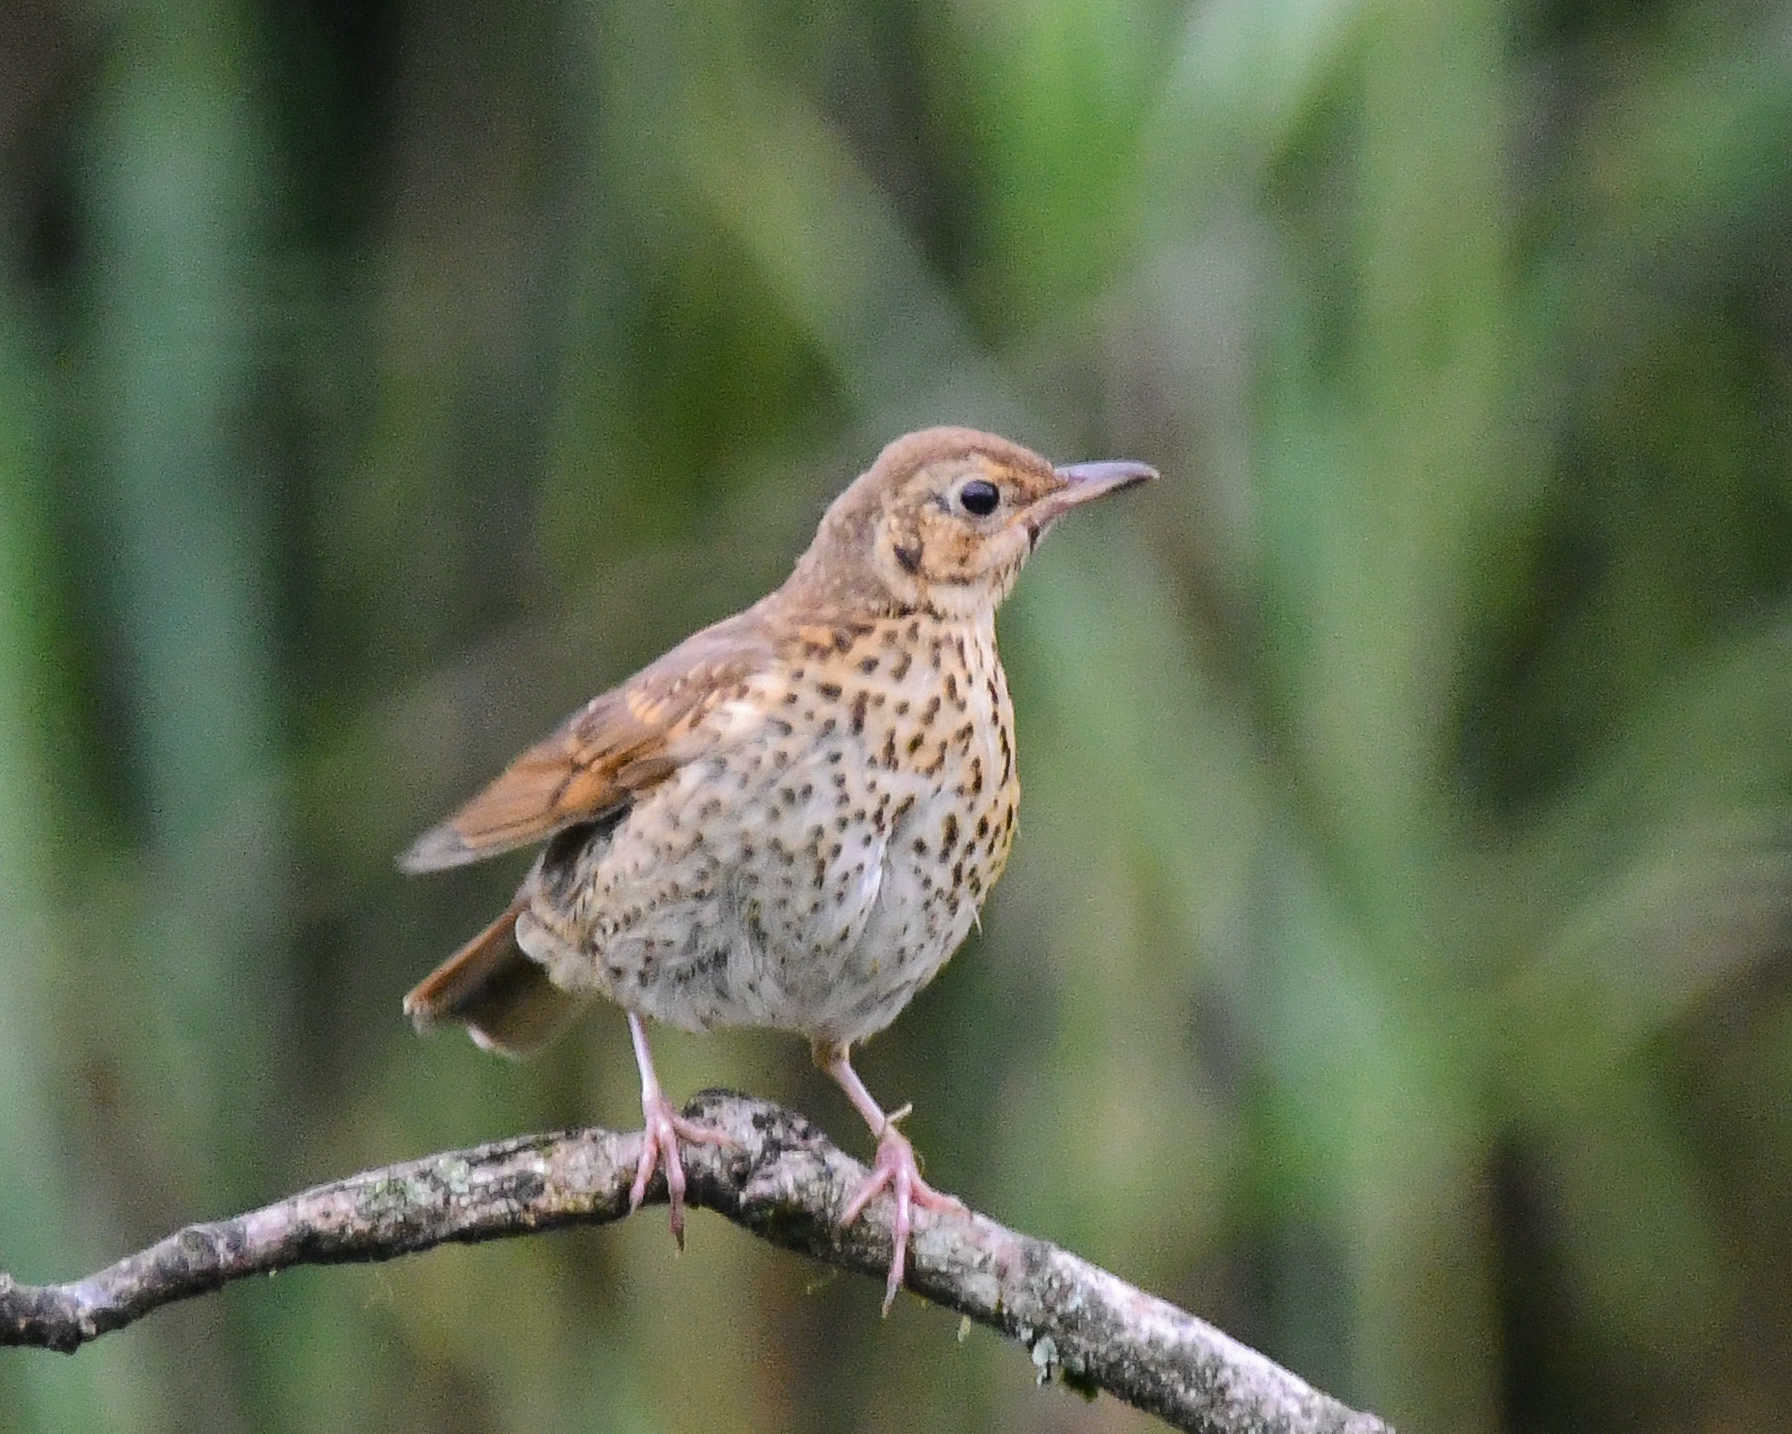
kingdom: Animalia
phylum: Chordata
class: Aves
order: Passeriformes
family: Turdidae
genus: Turdus
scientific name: Turdus philomelos
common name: Song thrush
